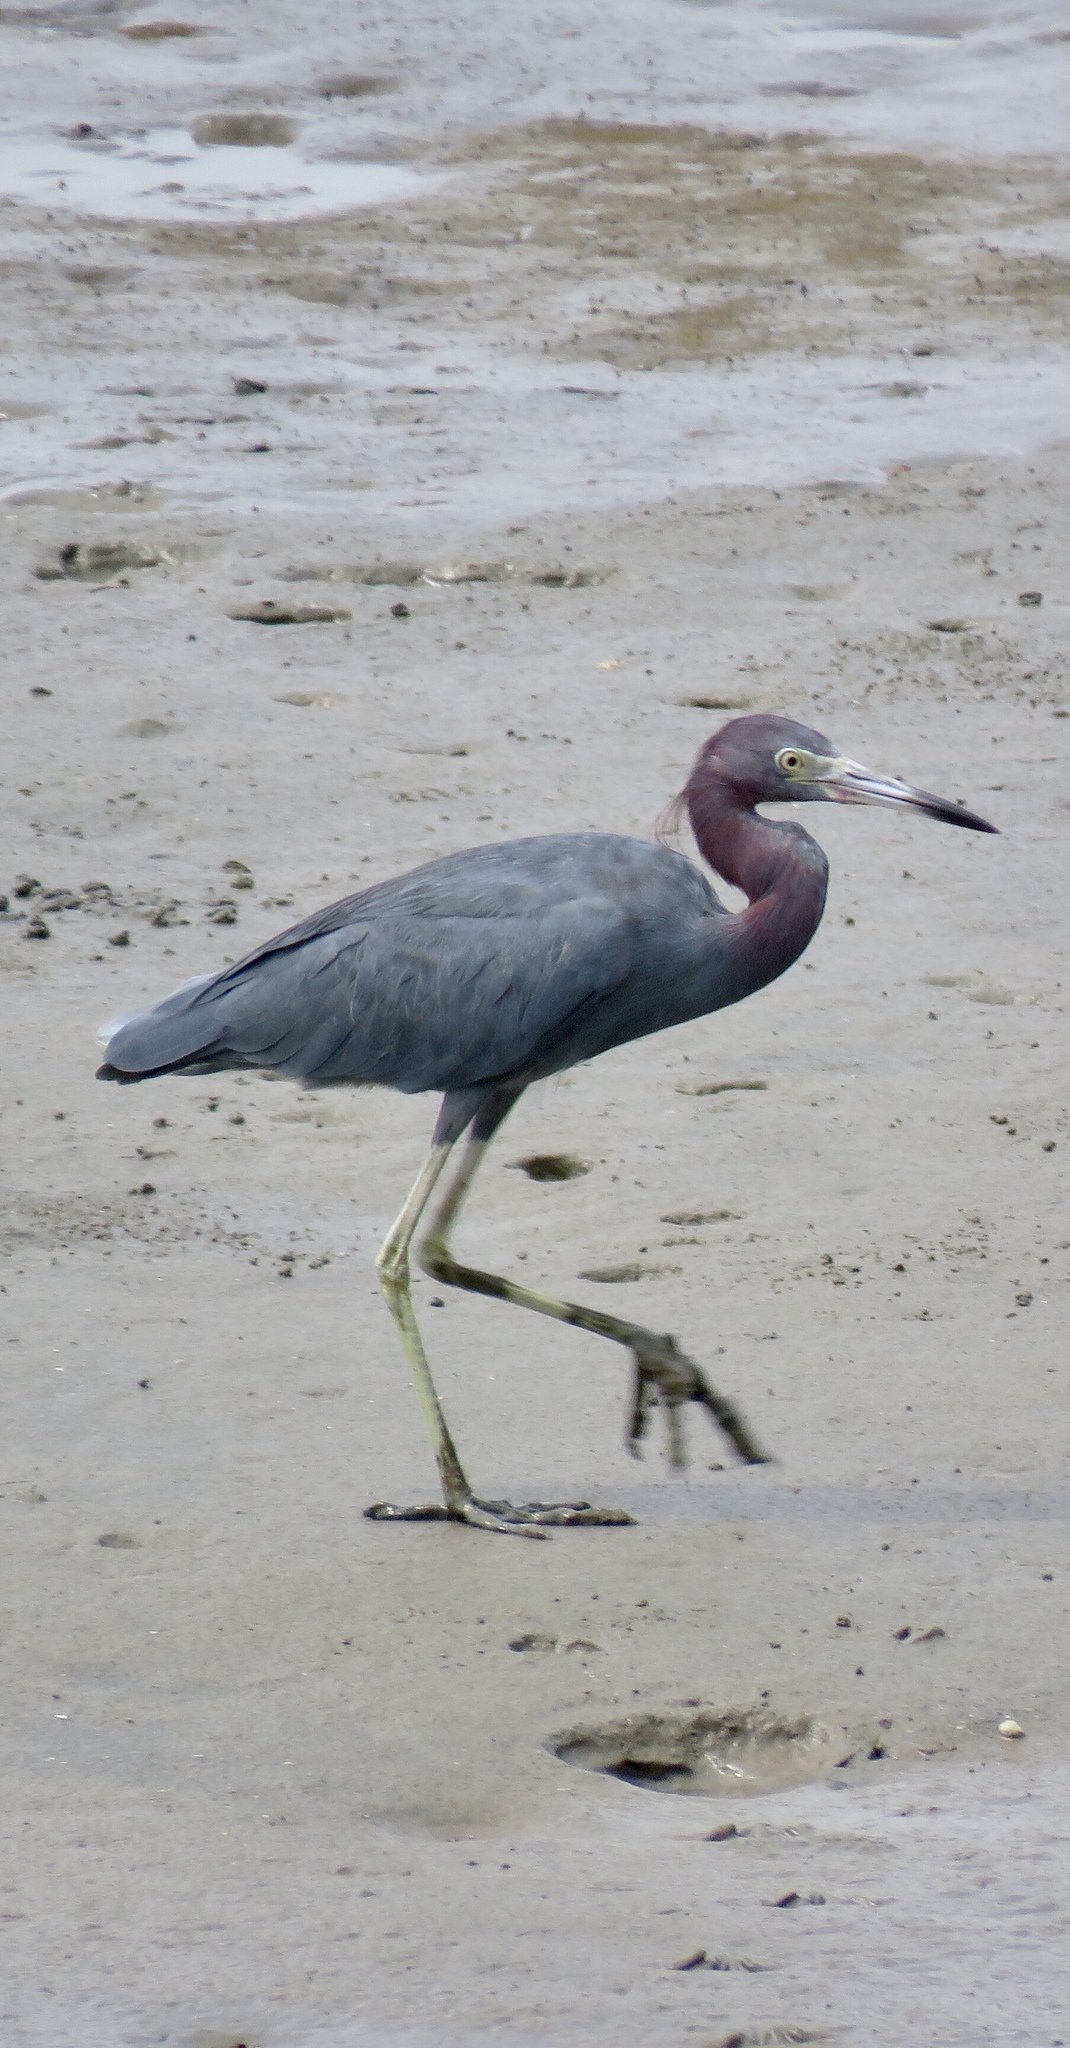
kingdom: Animalia
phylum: Chordata
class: Aves
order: Pelecaniformes
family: Ardeidae
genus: Egretta
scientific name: Egretta caerulea
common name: Little blue heron
